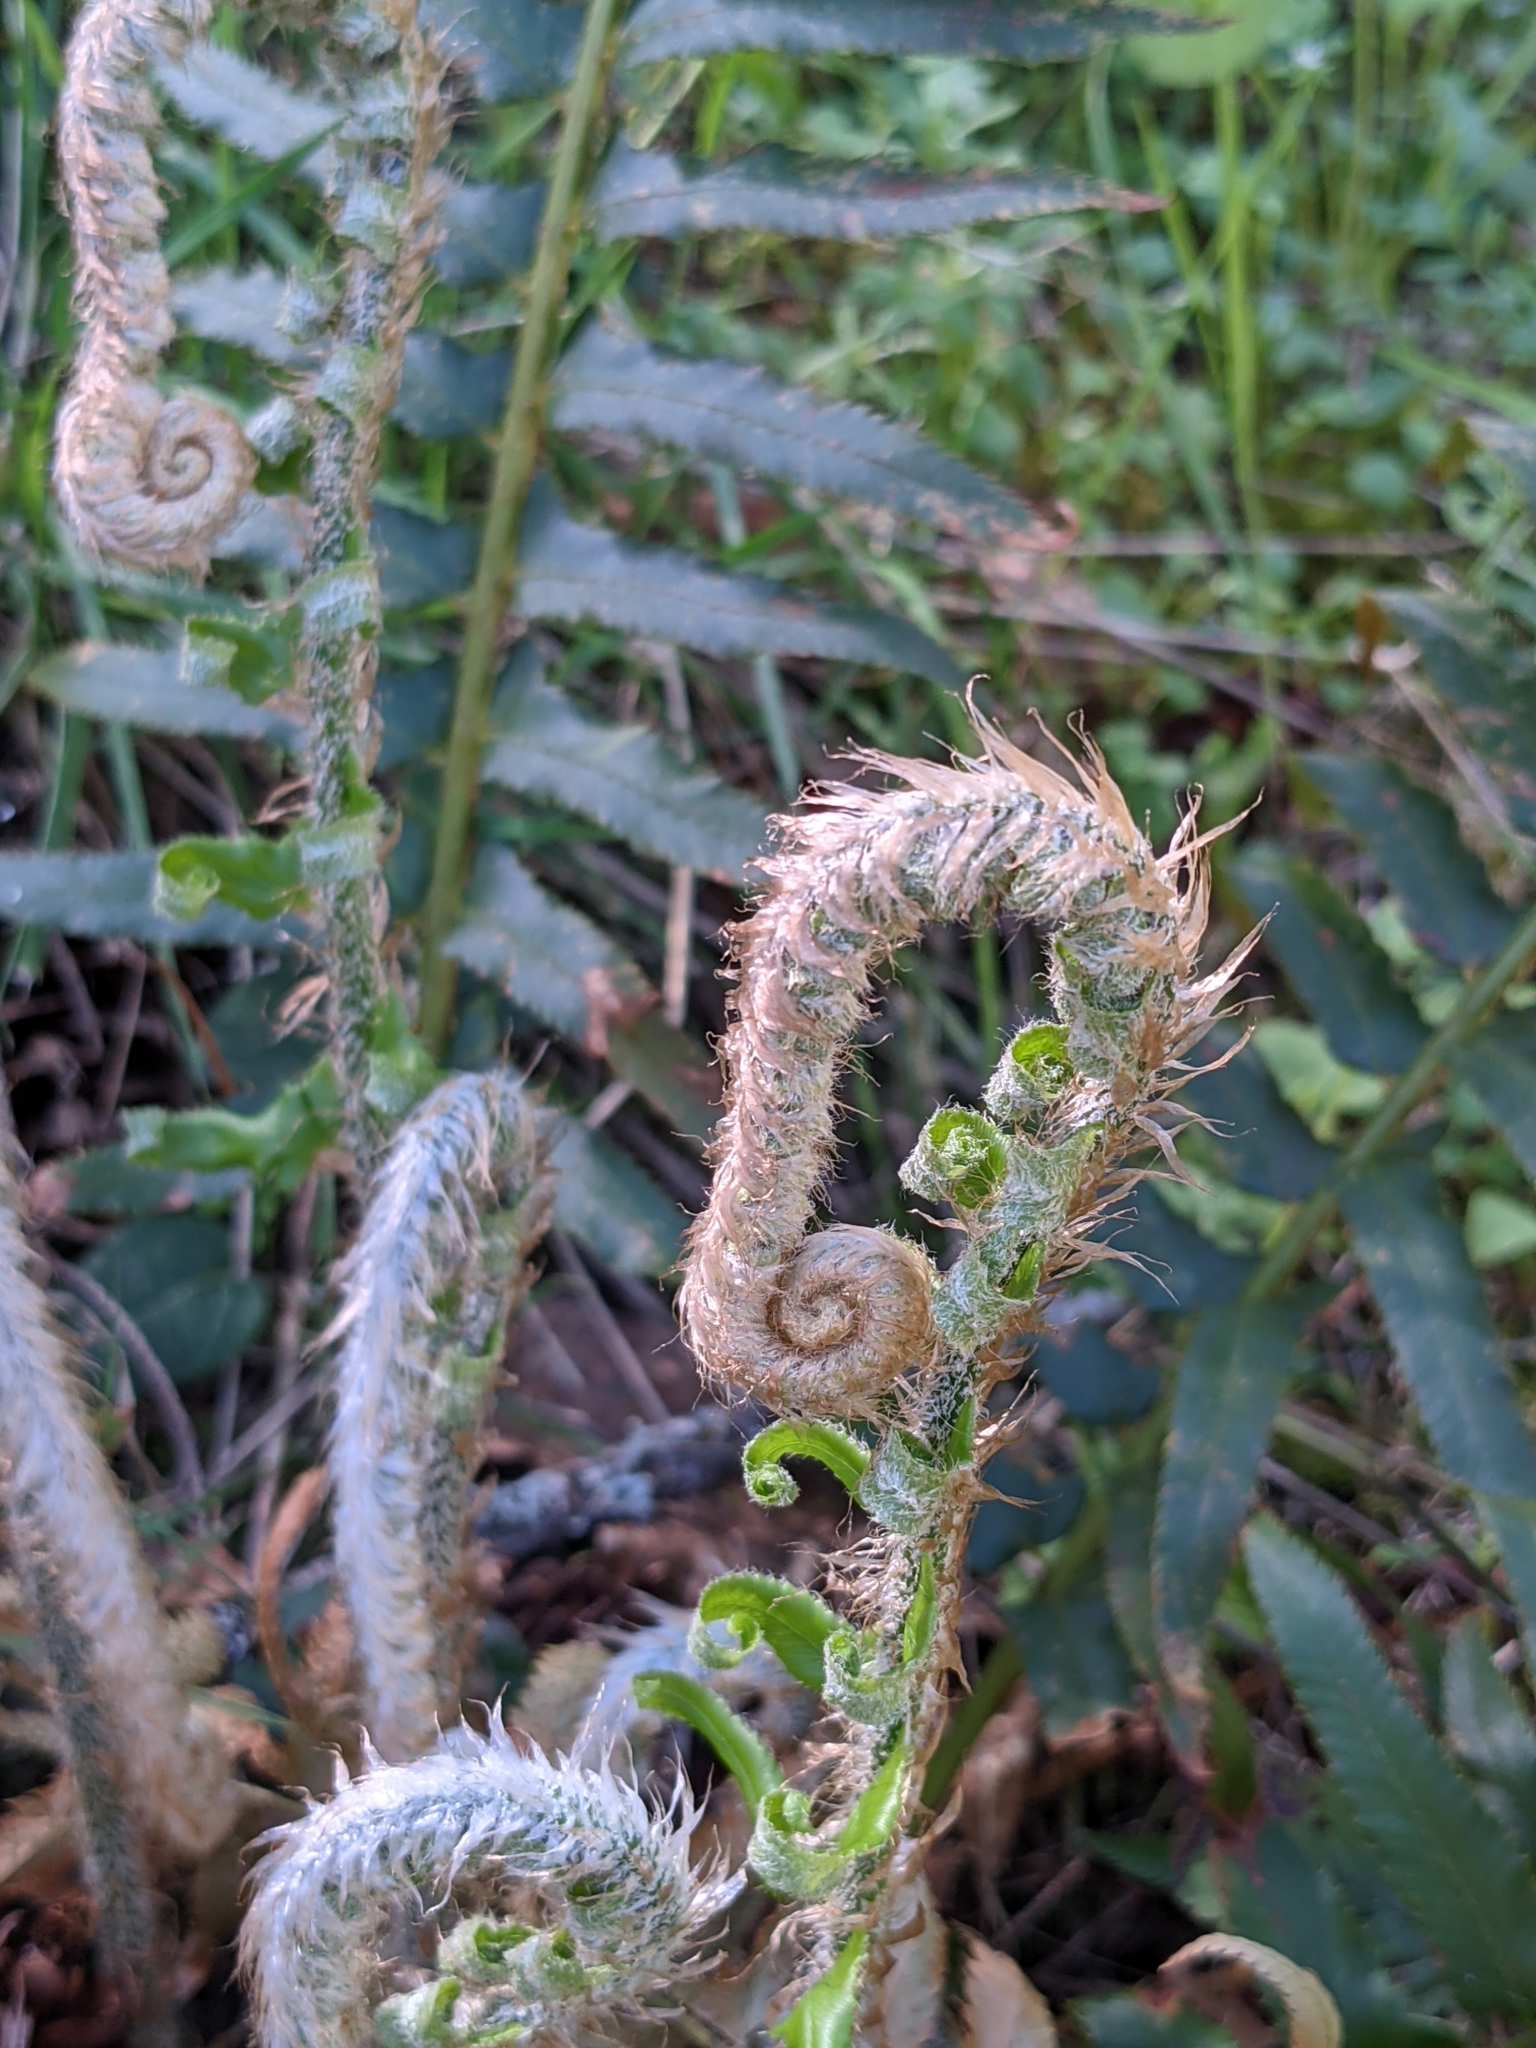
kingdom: Plantae
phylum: Tracheophyta
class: Polypodiopsida
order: Polypodiales
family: Dryopteridaceae
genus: Polystichum
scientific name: Polystichum munitum
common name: Western sword-fern
